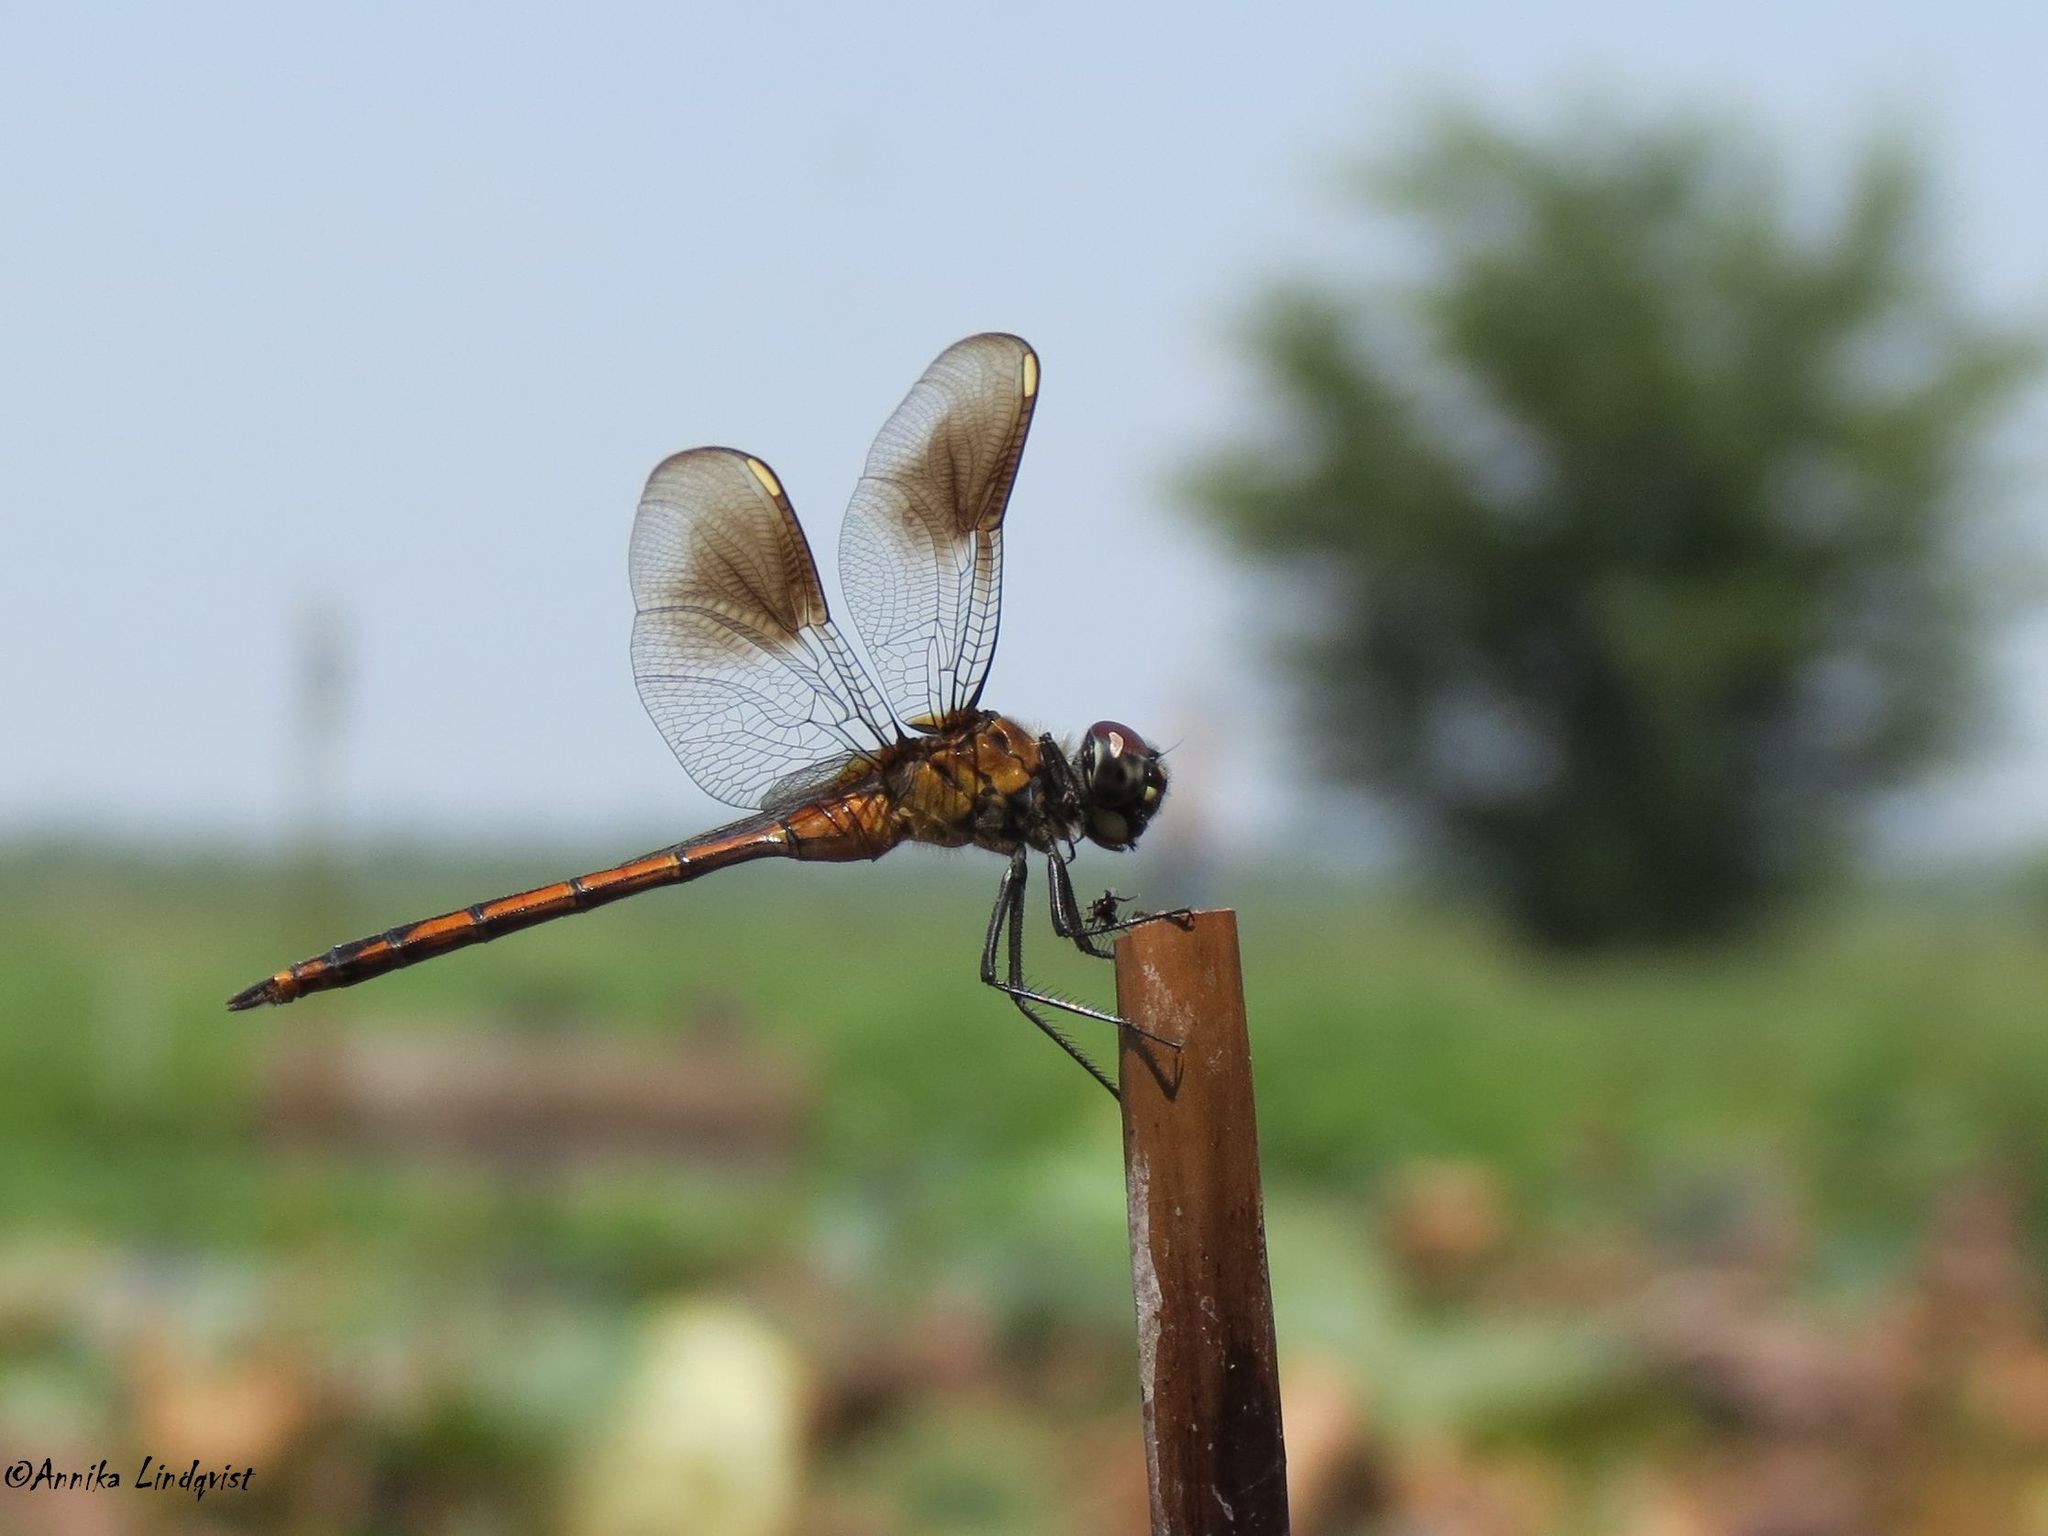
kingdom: Animalia
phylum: Arthropoda
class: Insecta
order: Odonata
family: Libellulidae
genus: Brachymesia
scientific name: Brachymesia gravida
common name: Four-spotted pennant
